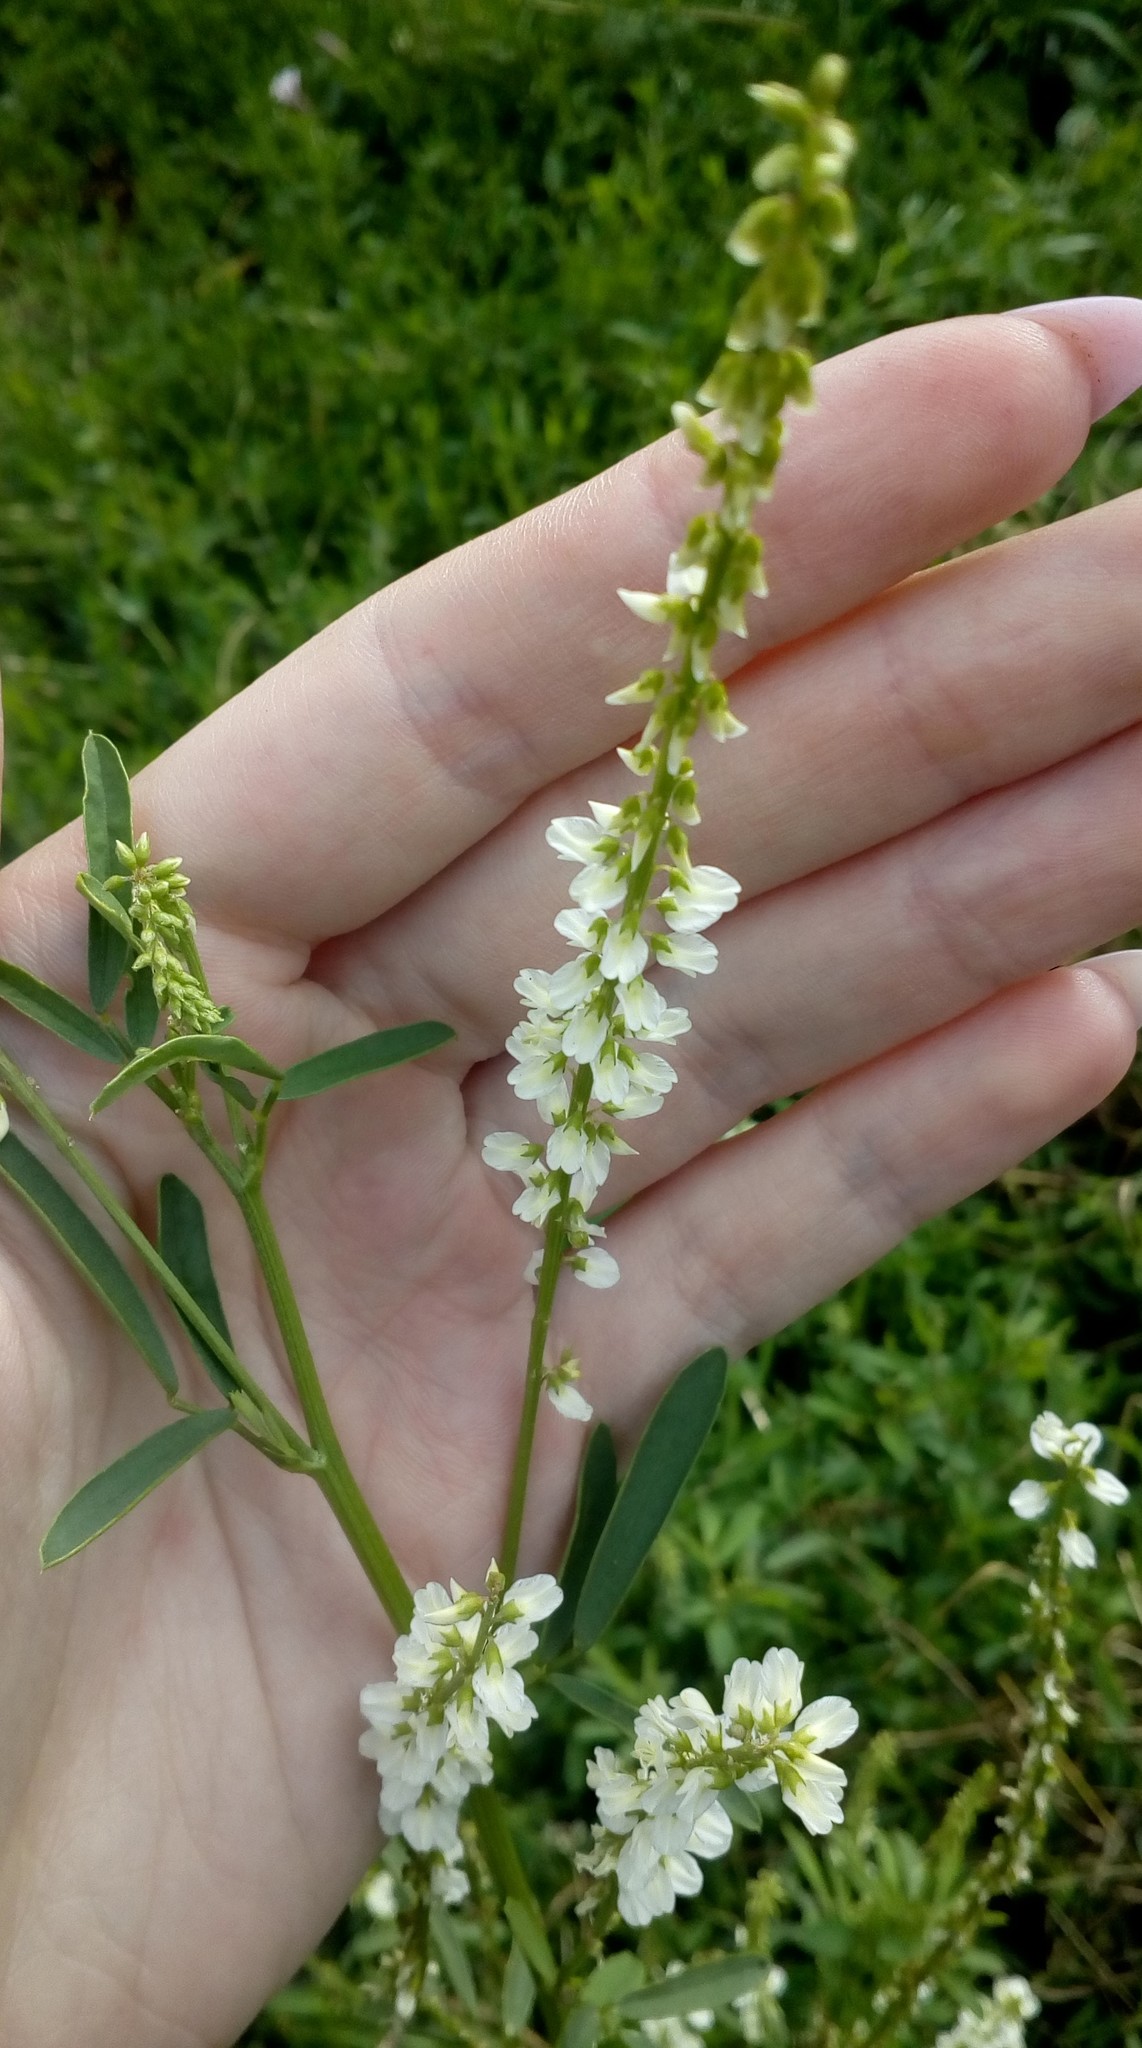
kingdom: Plantae
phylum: Tracheophyta
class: Magnoliopsida
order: Fabales
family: Fabaceae
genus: Melilotus
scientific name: Melilotus albus
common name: White melilot
